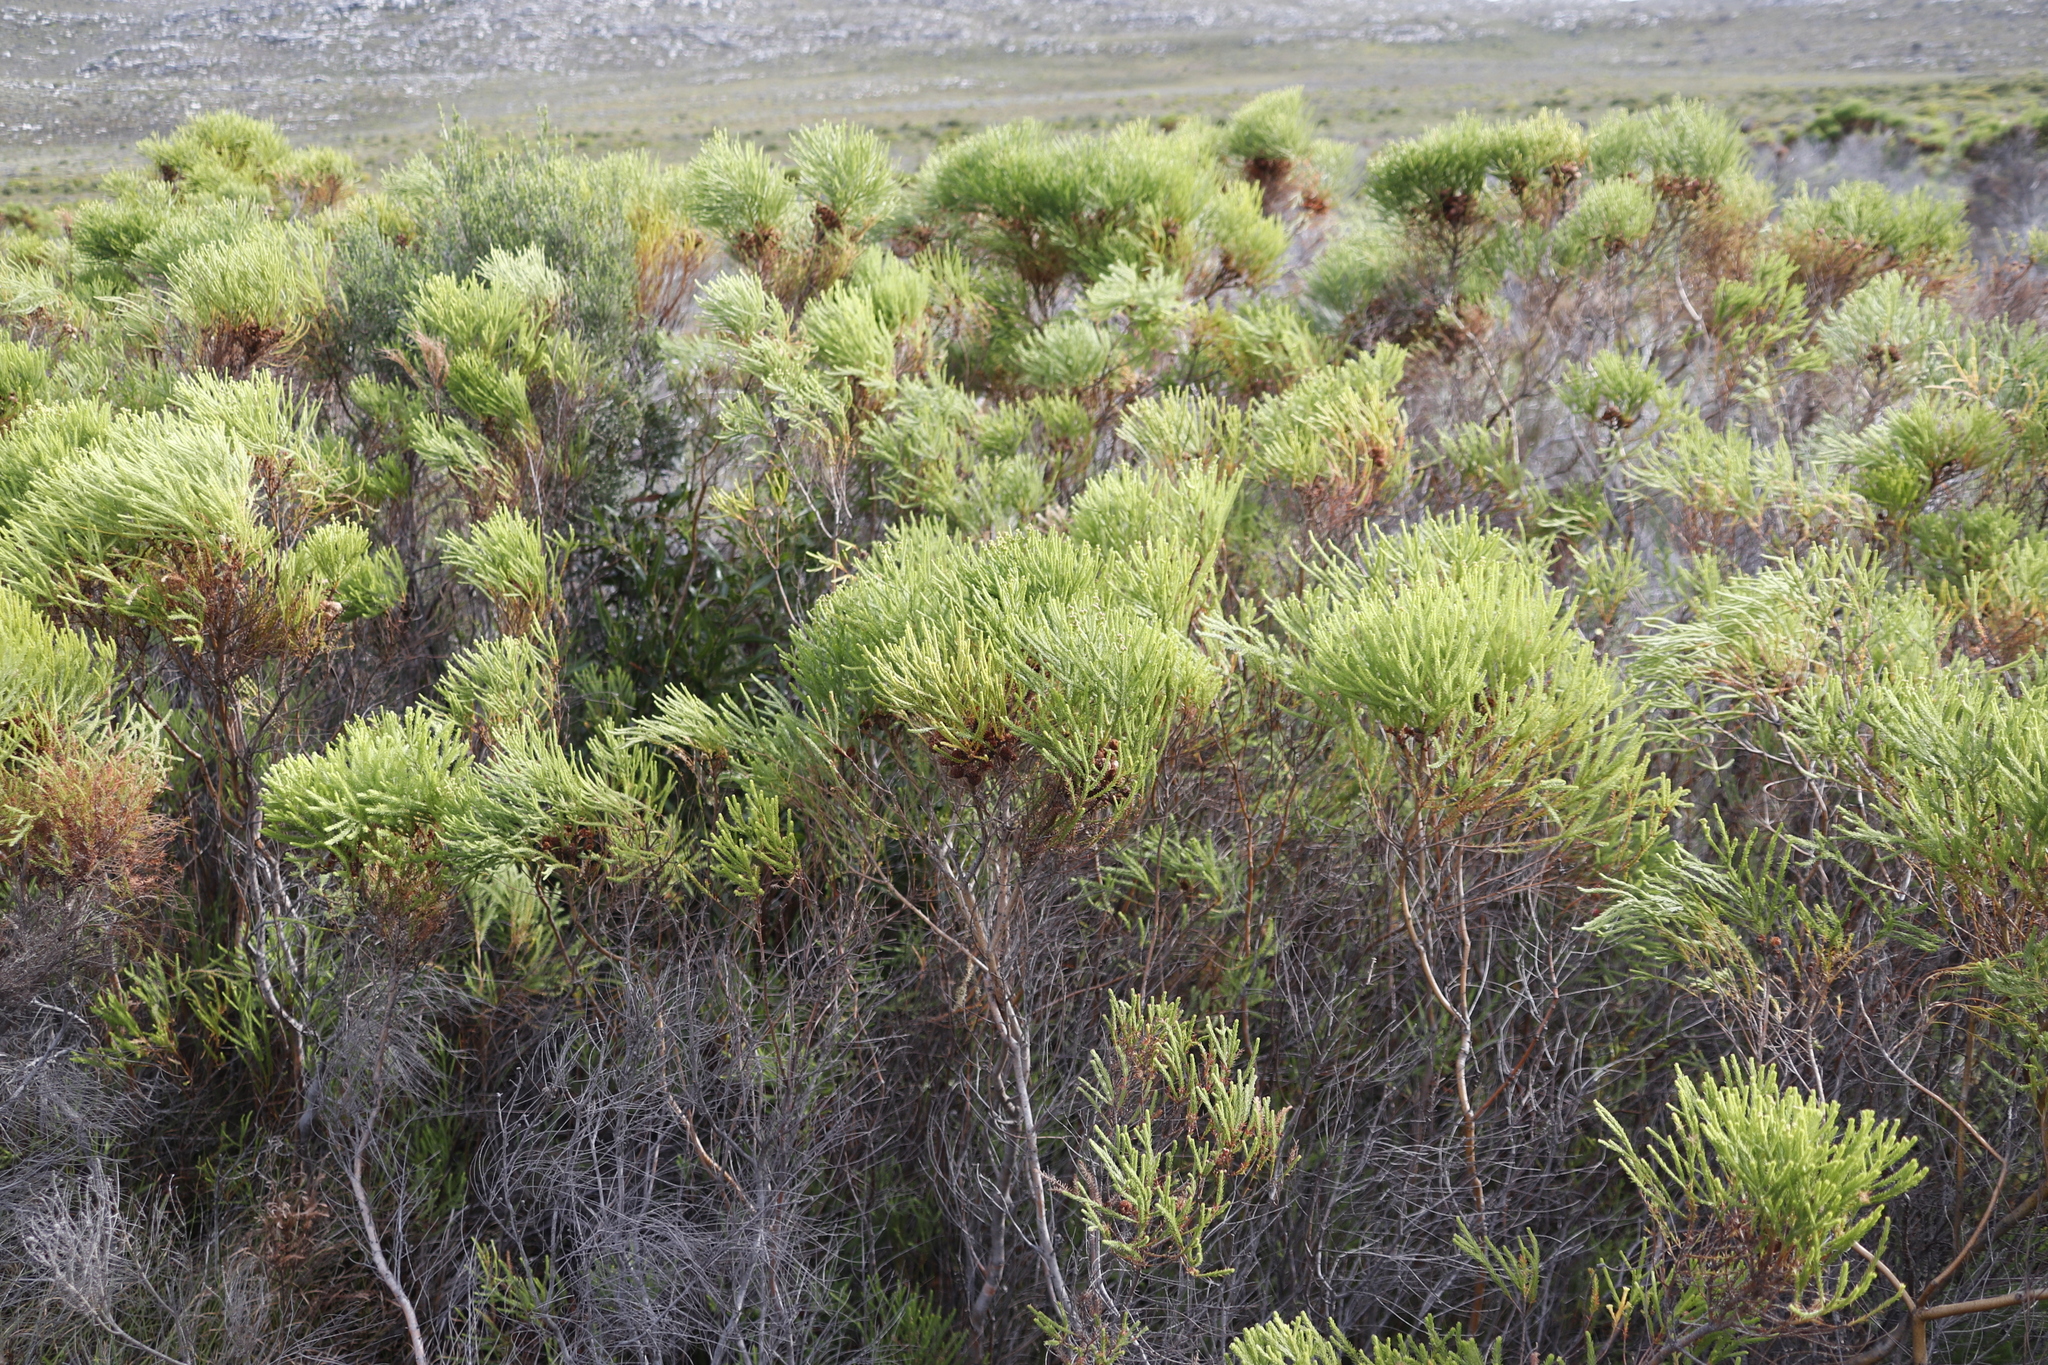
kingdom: Plantae
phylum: Tracheophyta
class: Magnoliopsida
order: Bruniales
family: Bruniaceae
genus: Berzelia
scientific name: Berzelia lanuginosa
